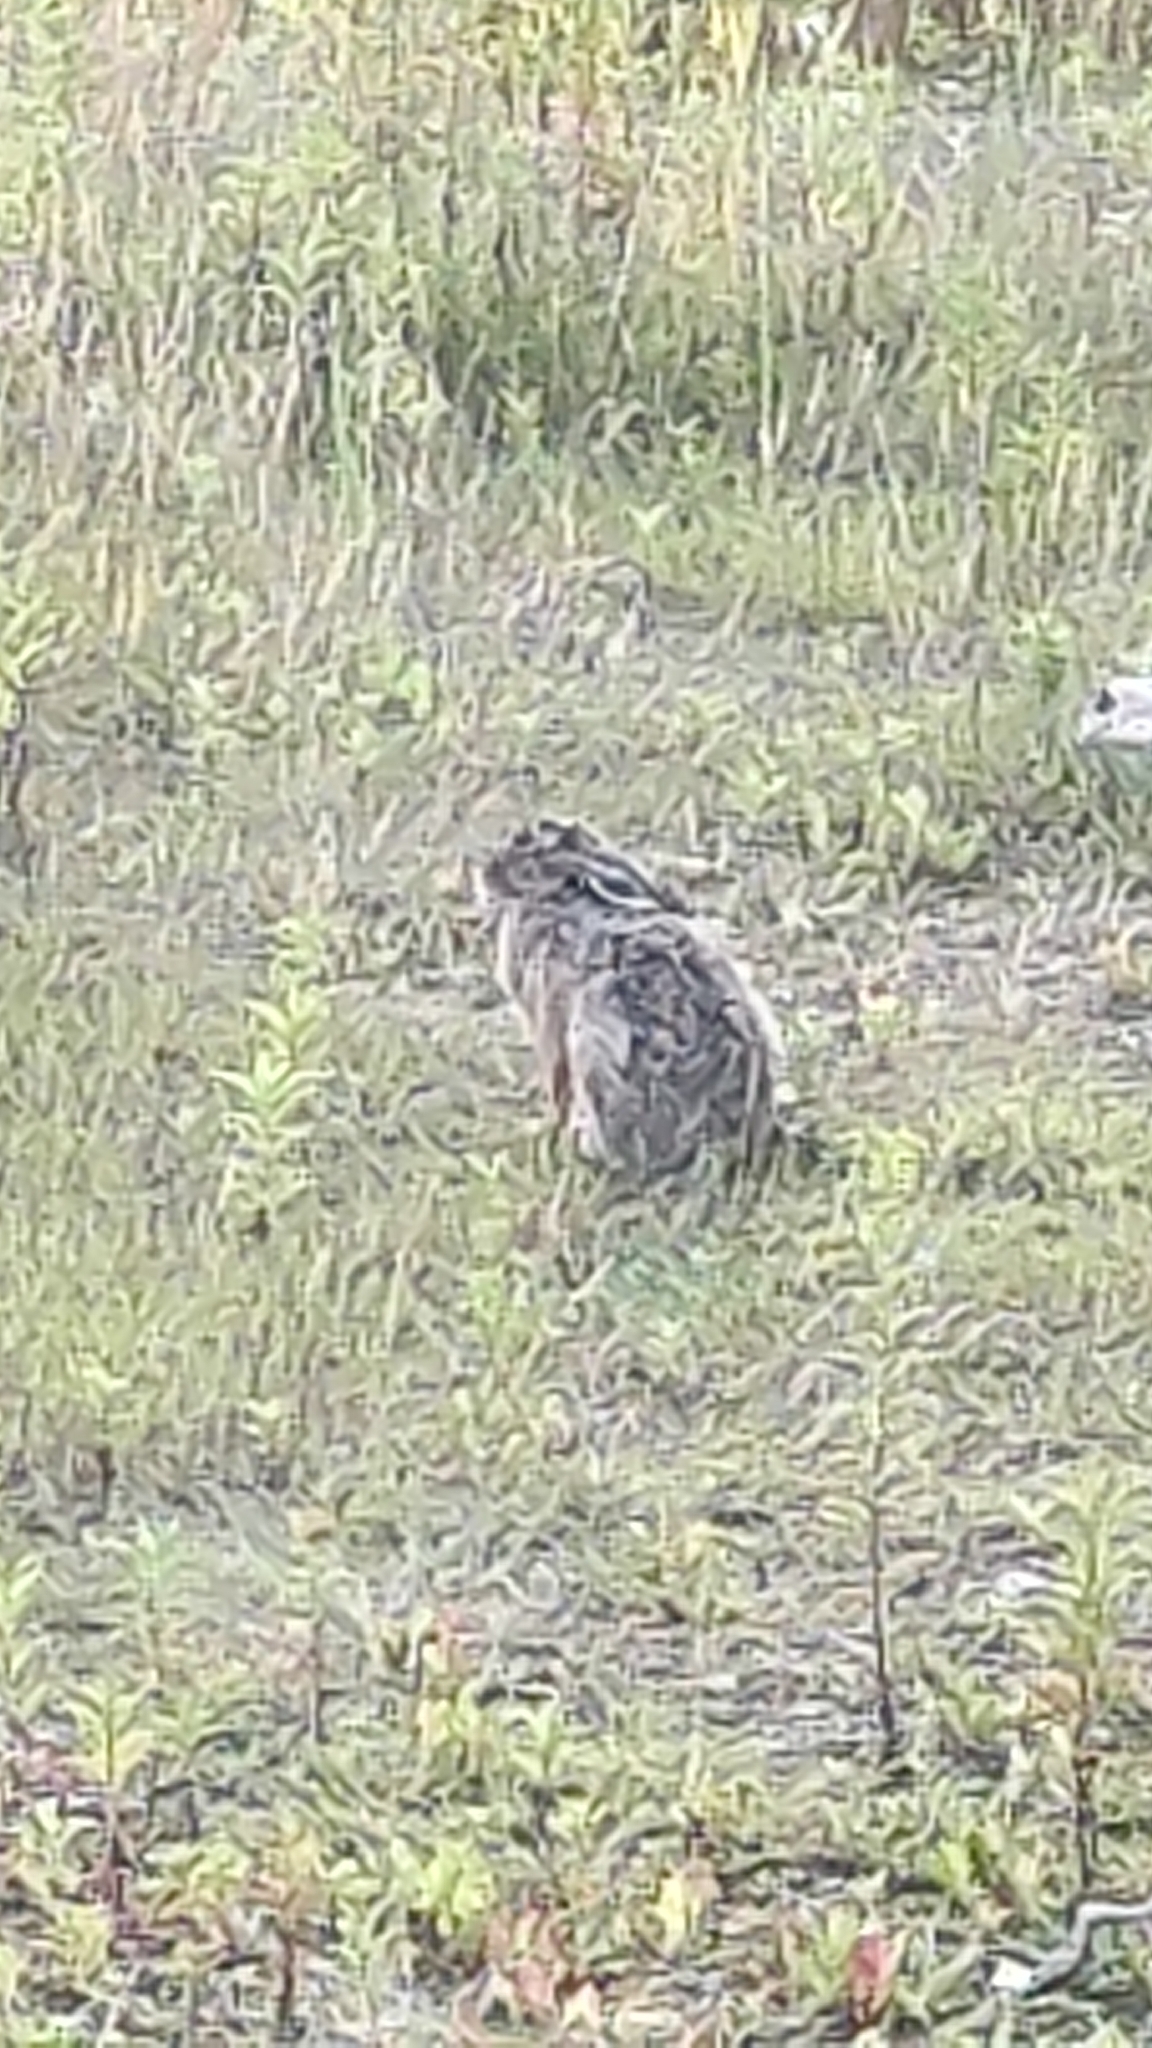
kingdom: Animalia
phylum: Chordata
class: Mammalia
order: Lagomorpha
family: Leporidae
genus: Lepus
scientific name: Lepus europaeus
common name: European hare
